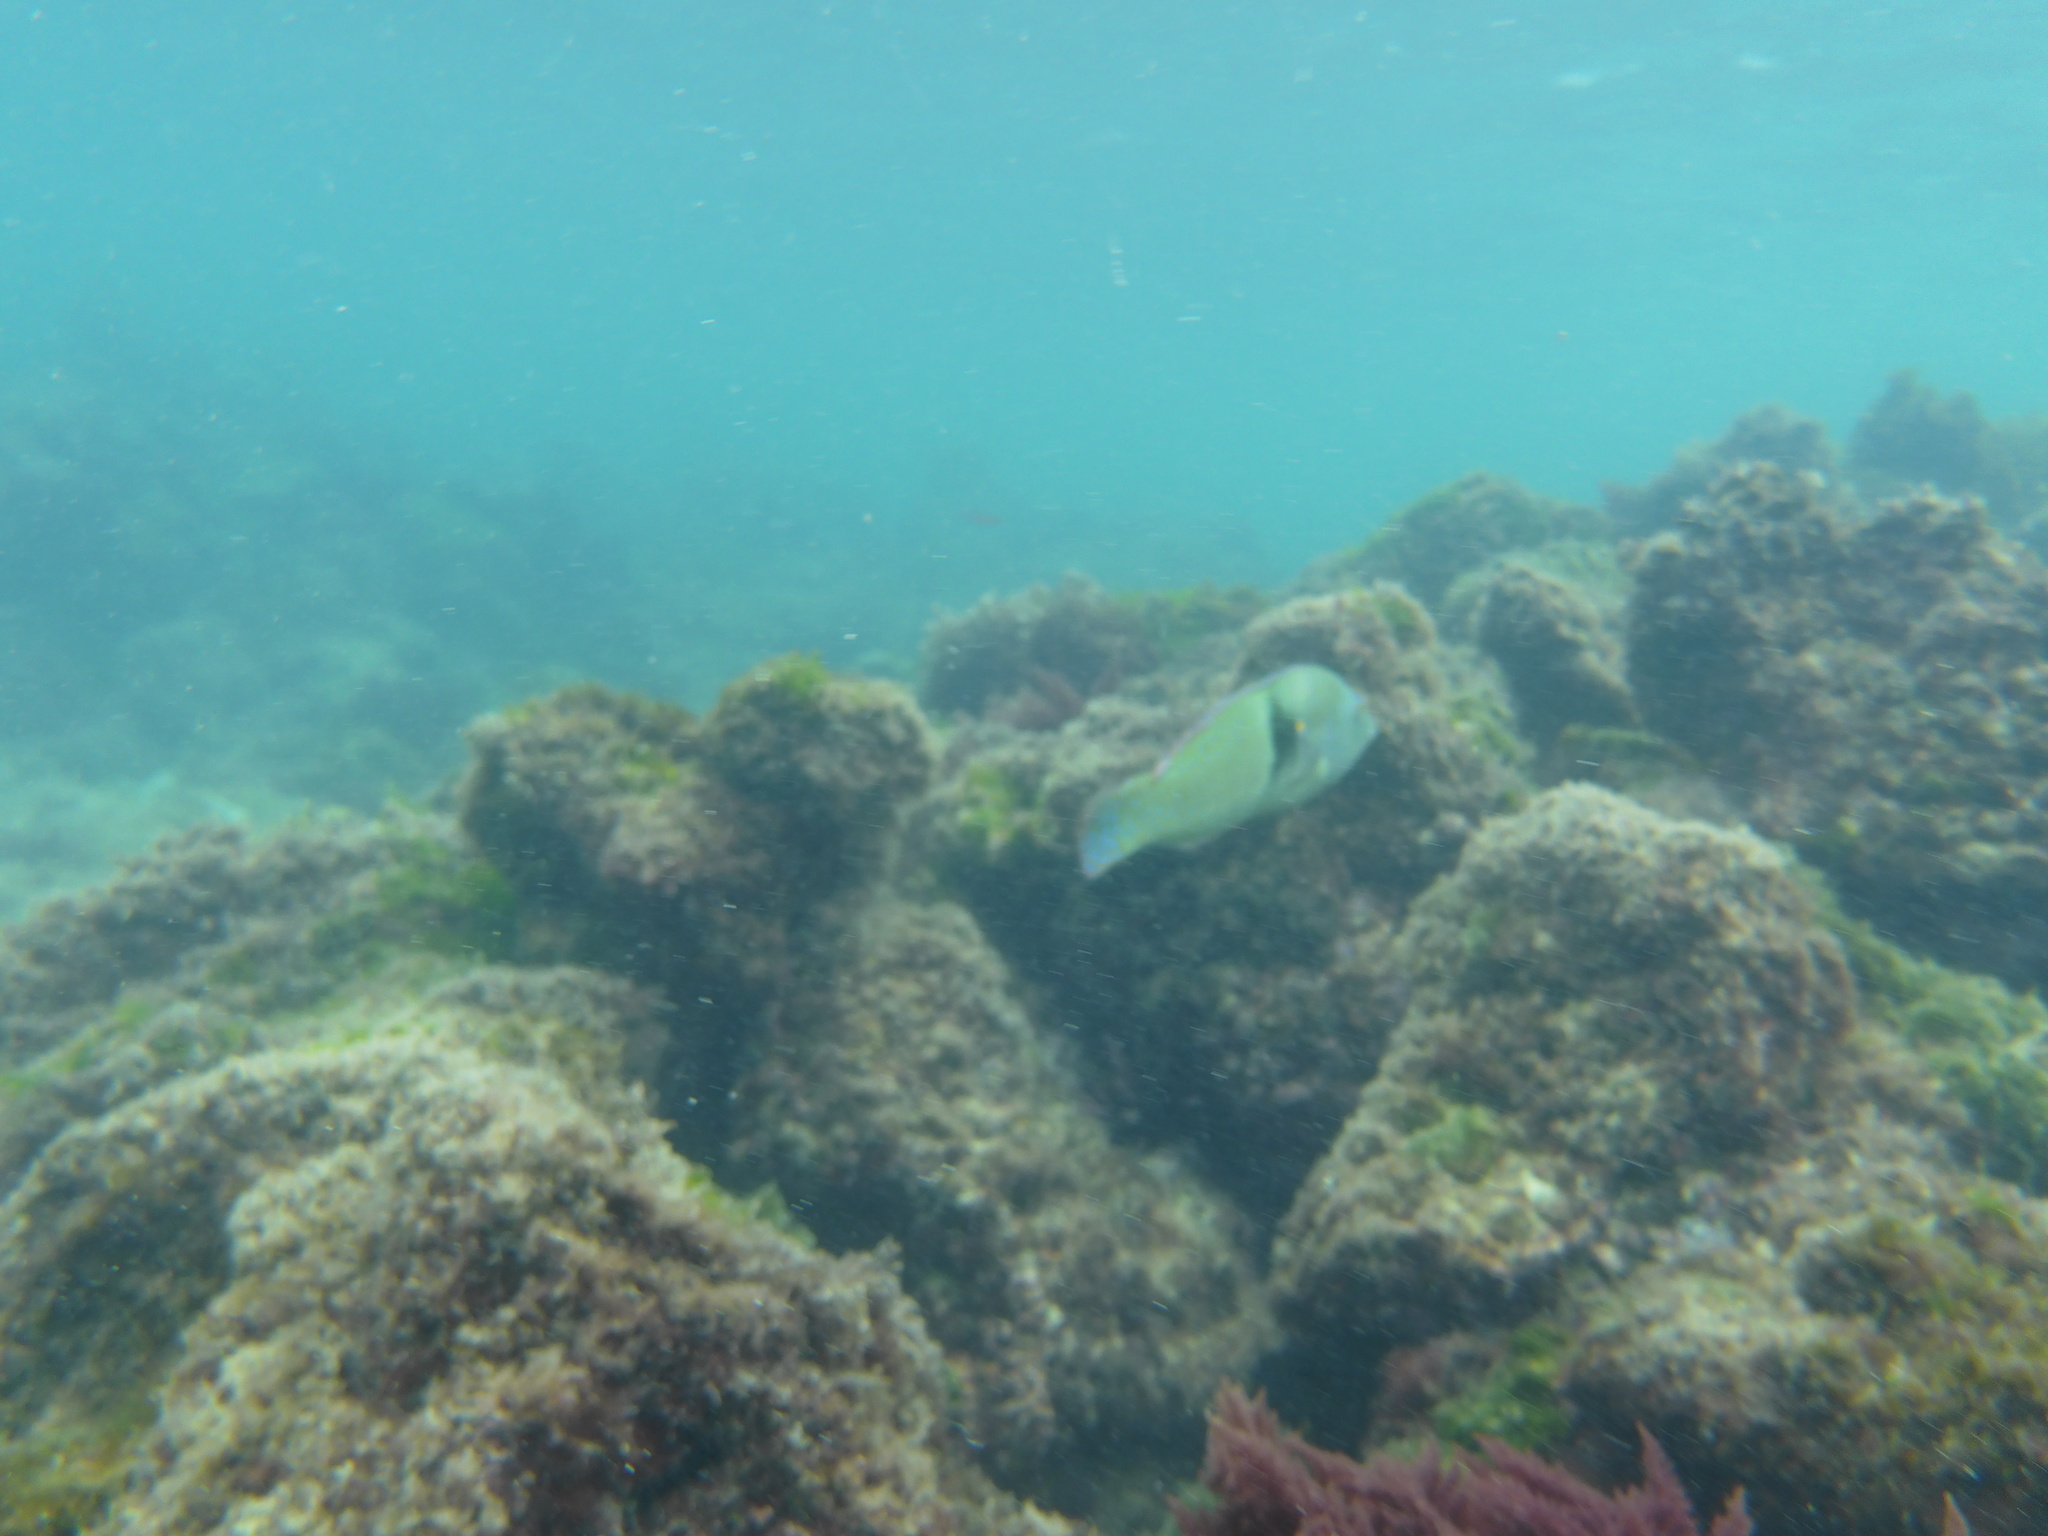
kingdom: Animalia
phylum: Chordata
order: Perciformes
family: Labridae
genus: Halichoeres
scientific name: Halichoeres nicholsi
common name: Spinster wrasse
